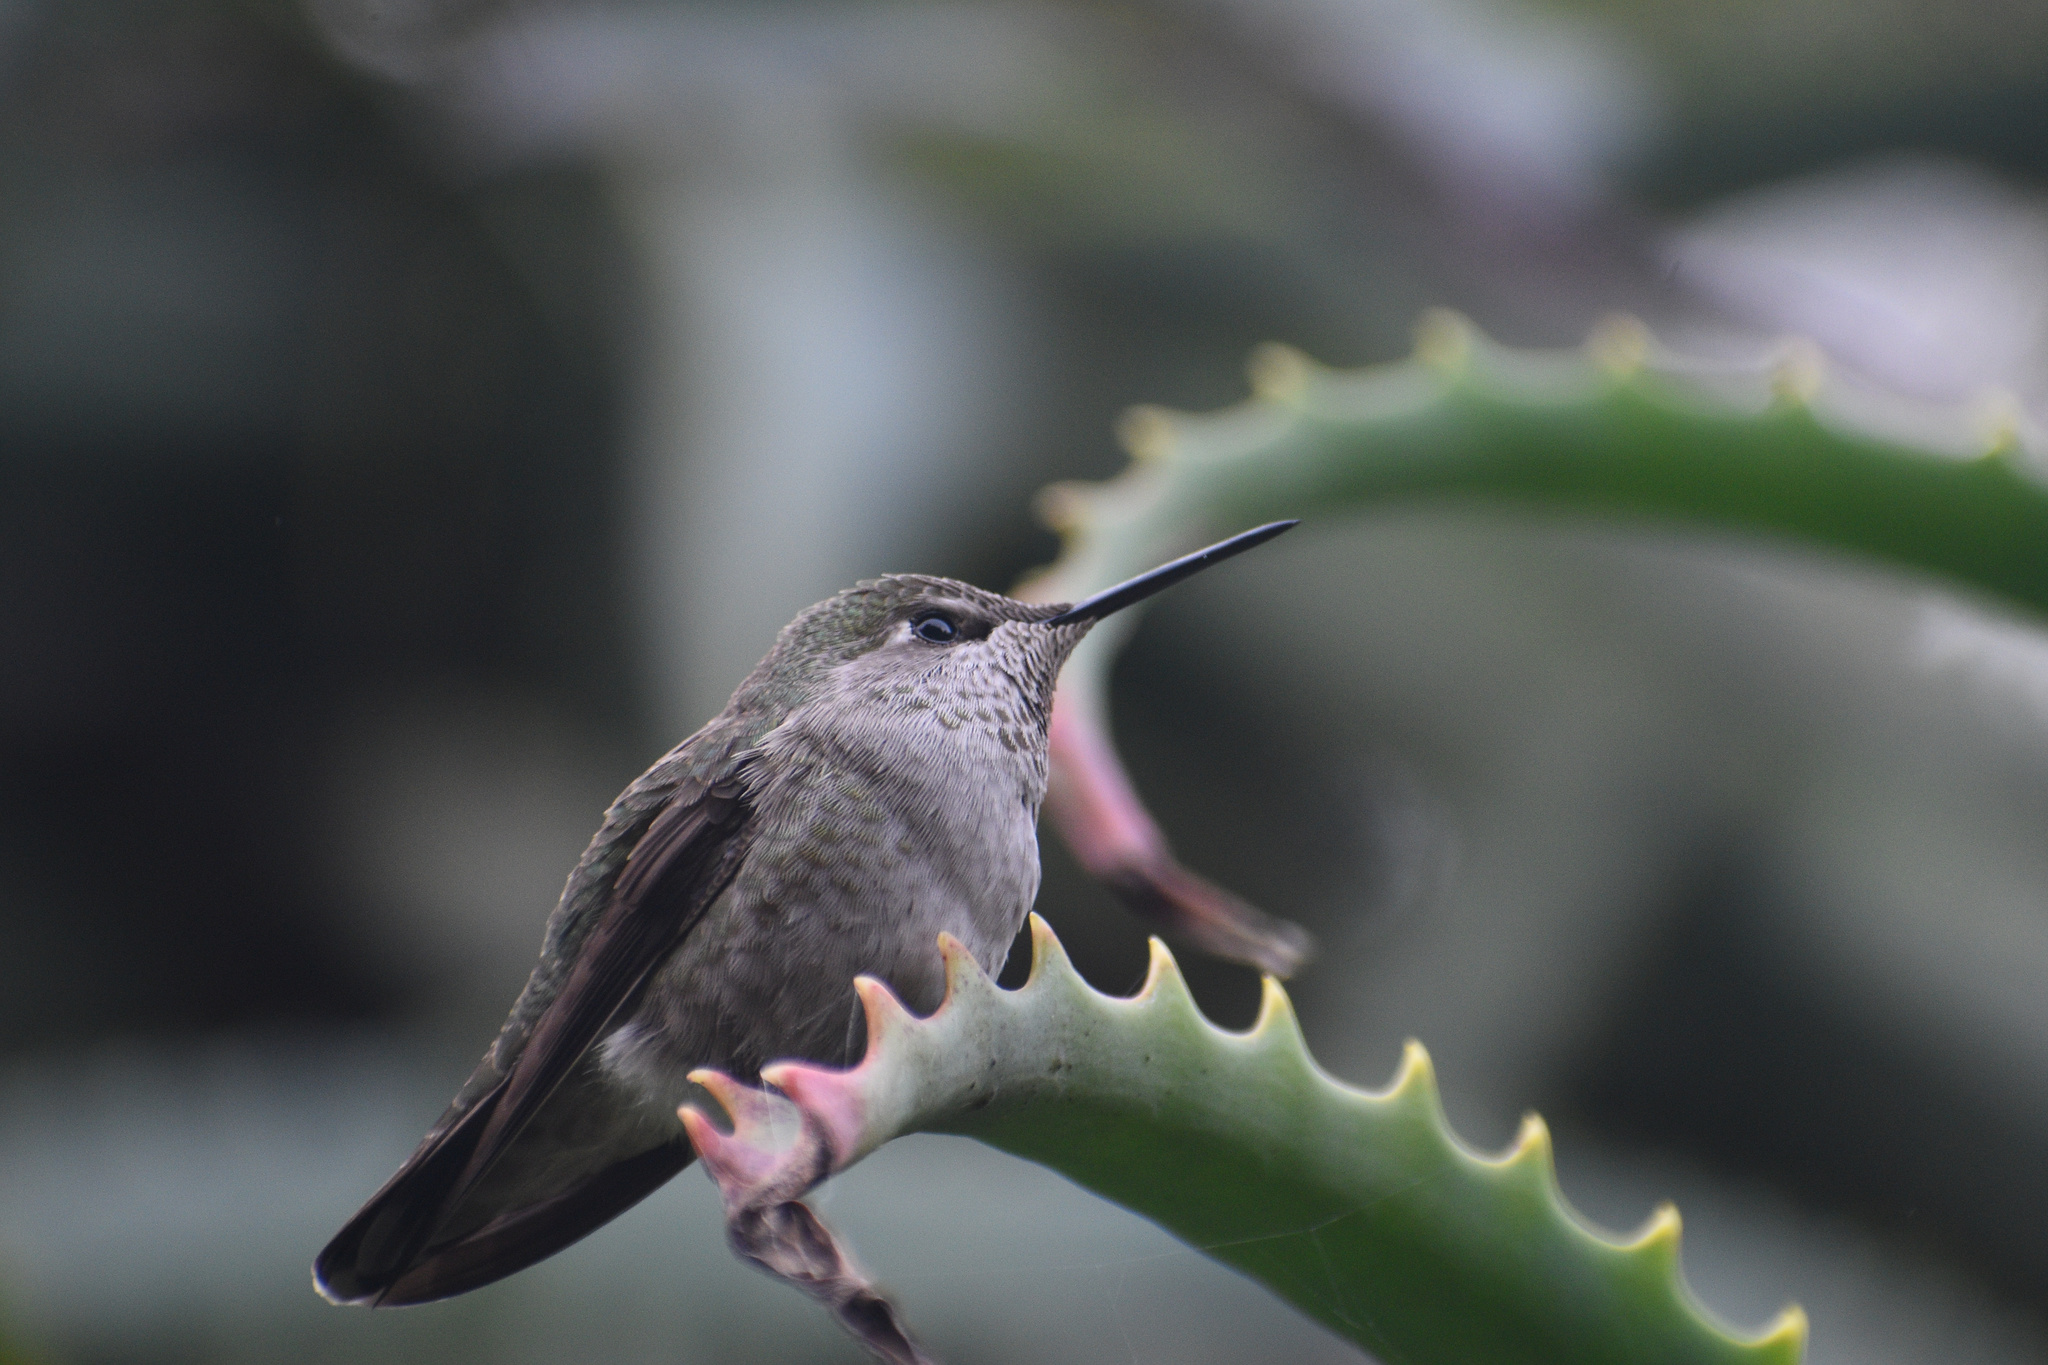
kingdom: Animalia
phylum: Chordata
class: Aves
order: Apodiformes
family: Trochilidae
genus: Calypte
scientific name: Calypte anna
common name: Anna's hummingbird
